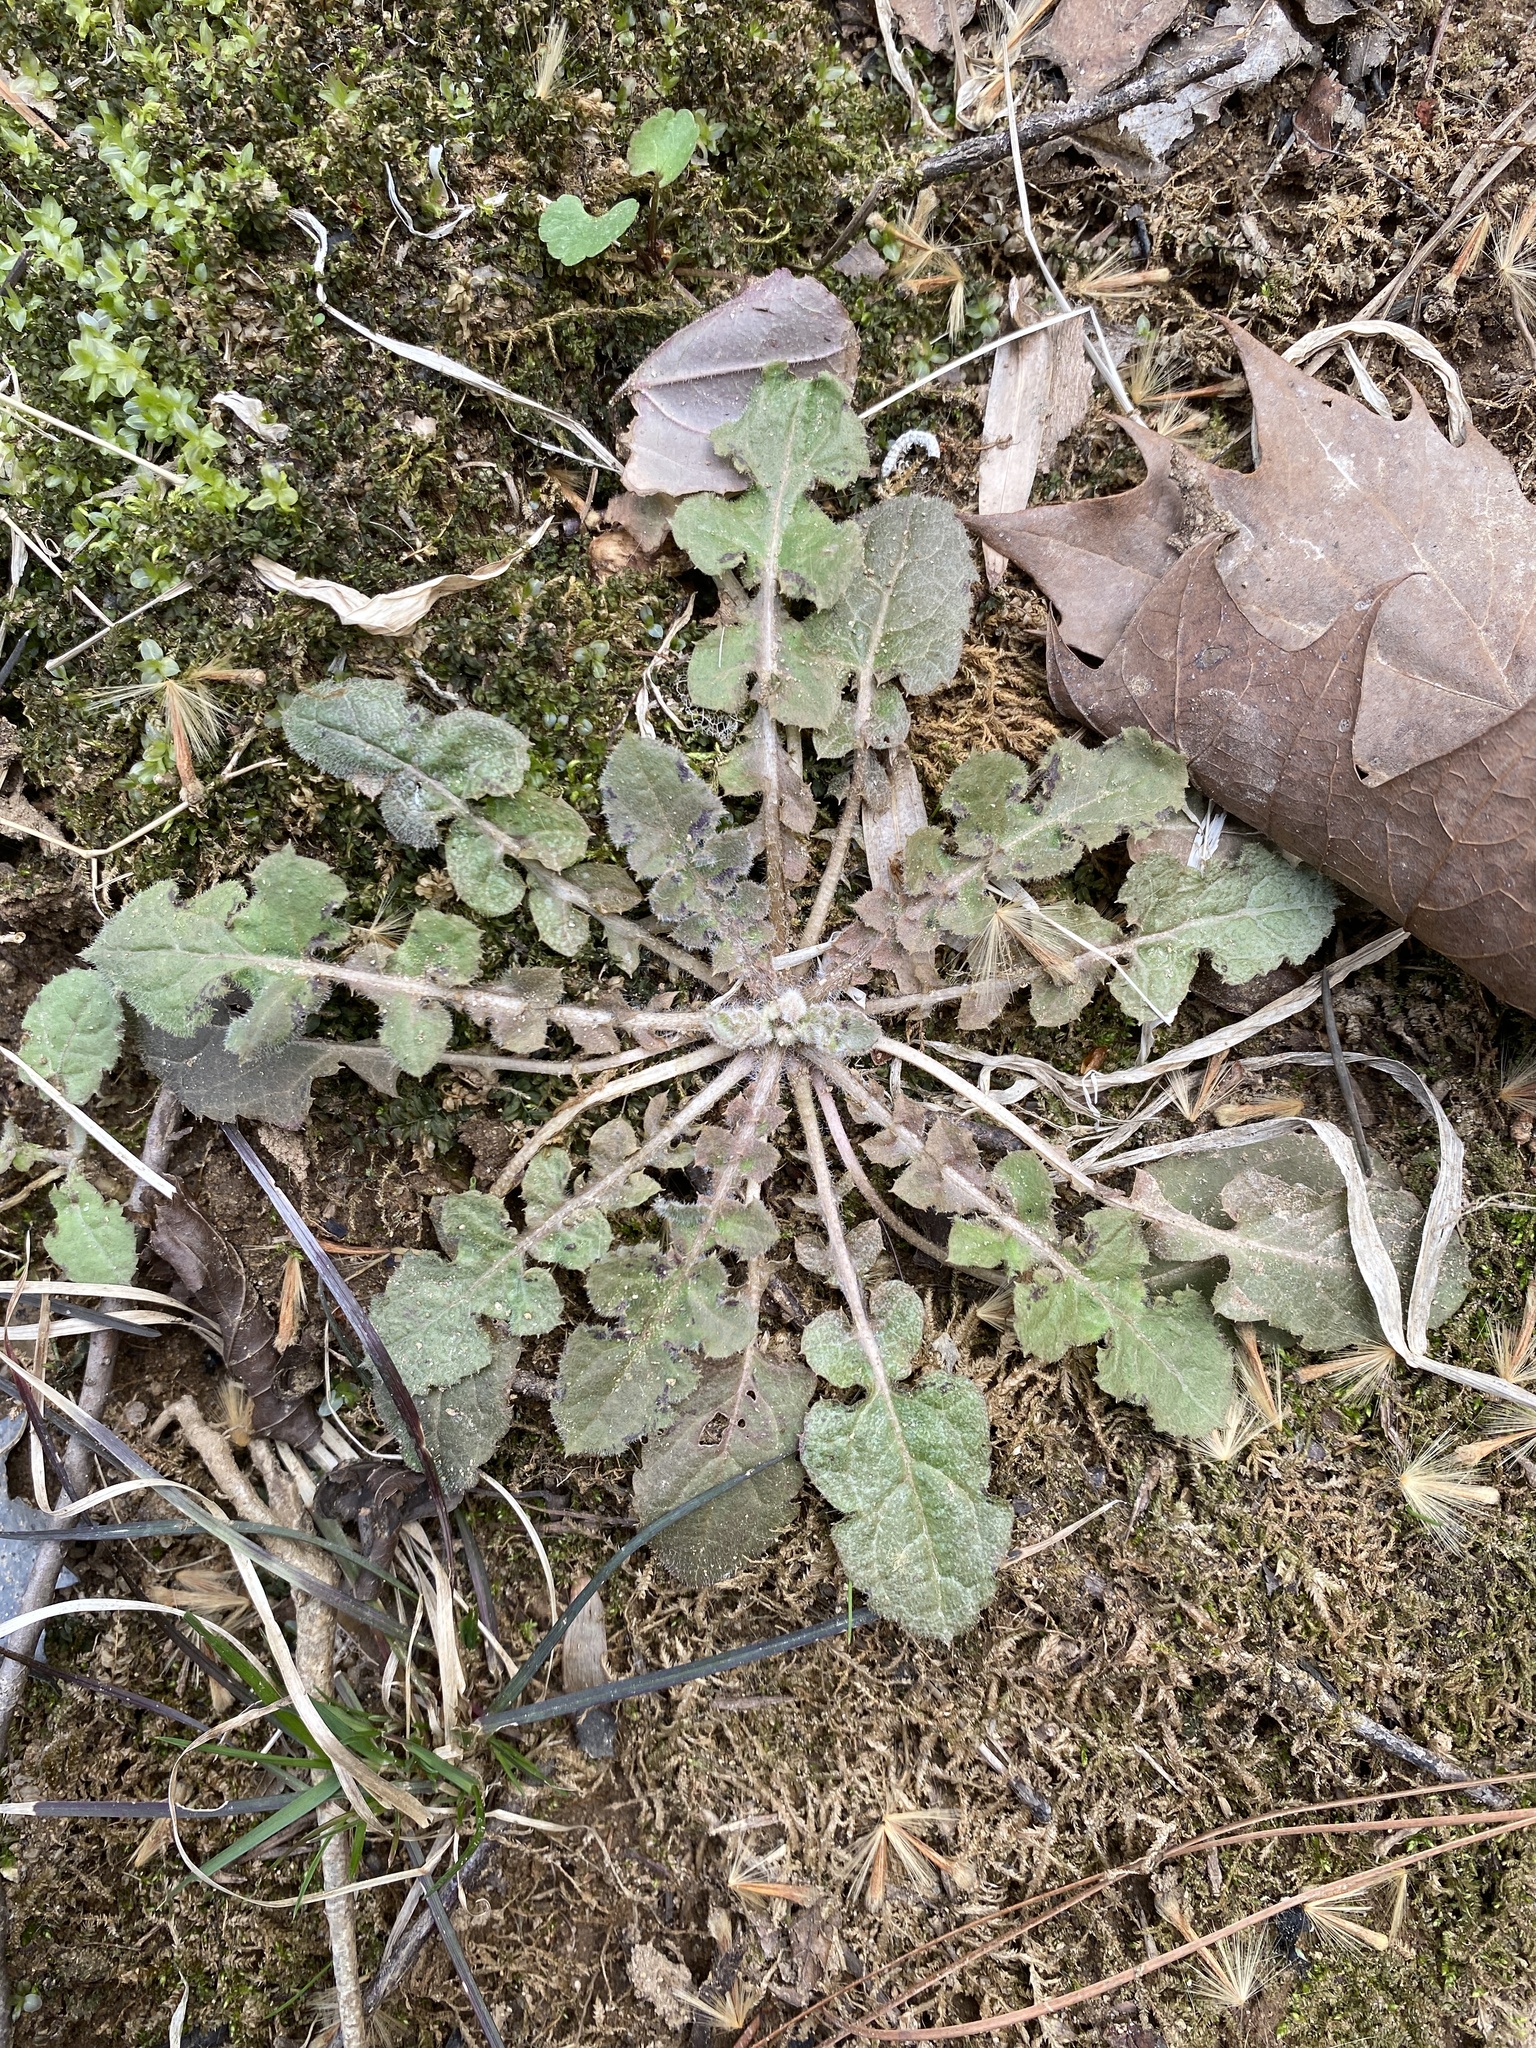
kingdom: Plantae
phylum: Tracheophyta
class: Magnoliopsida
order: Asterales
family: Asteraceae
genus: Youngia
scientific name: Youngia japonica
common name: Oriental false hawksbeard
